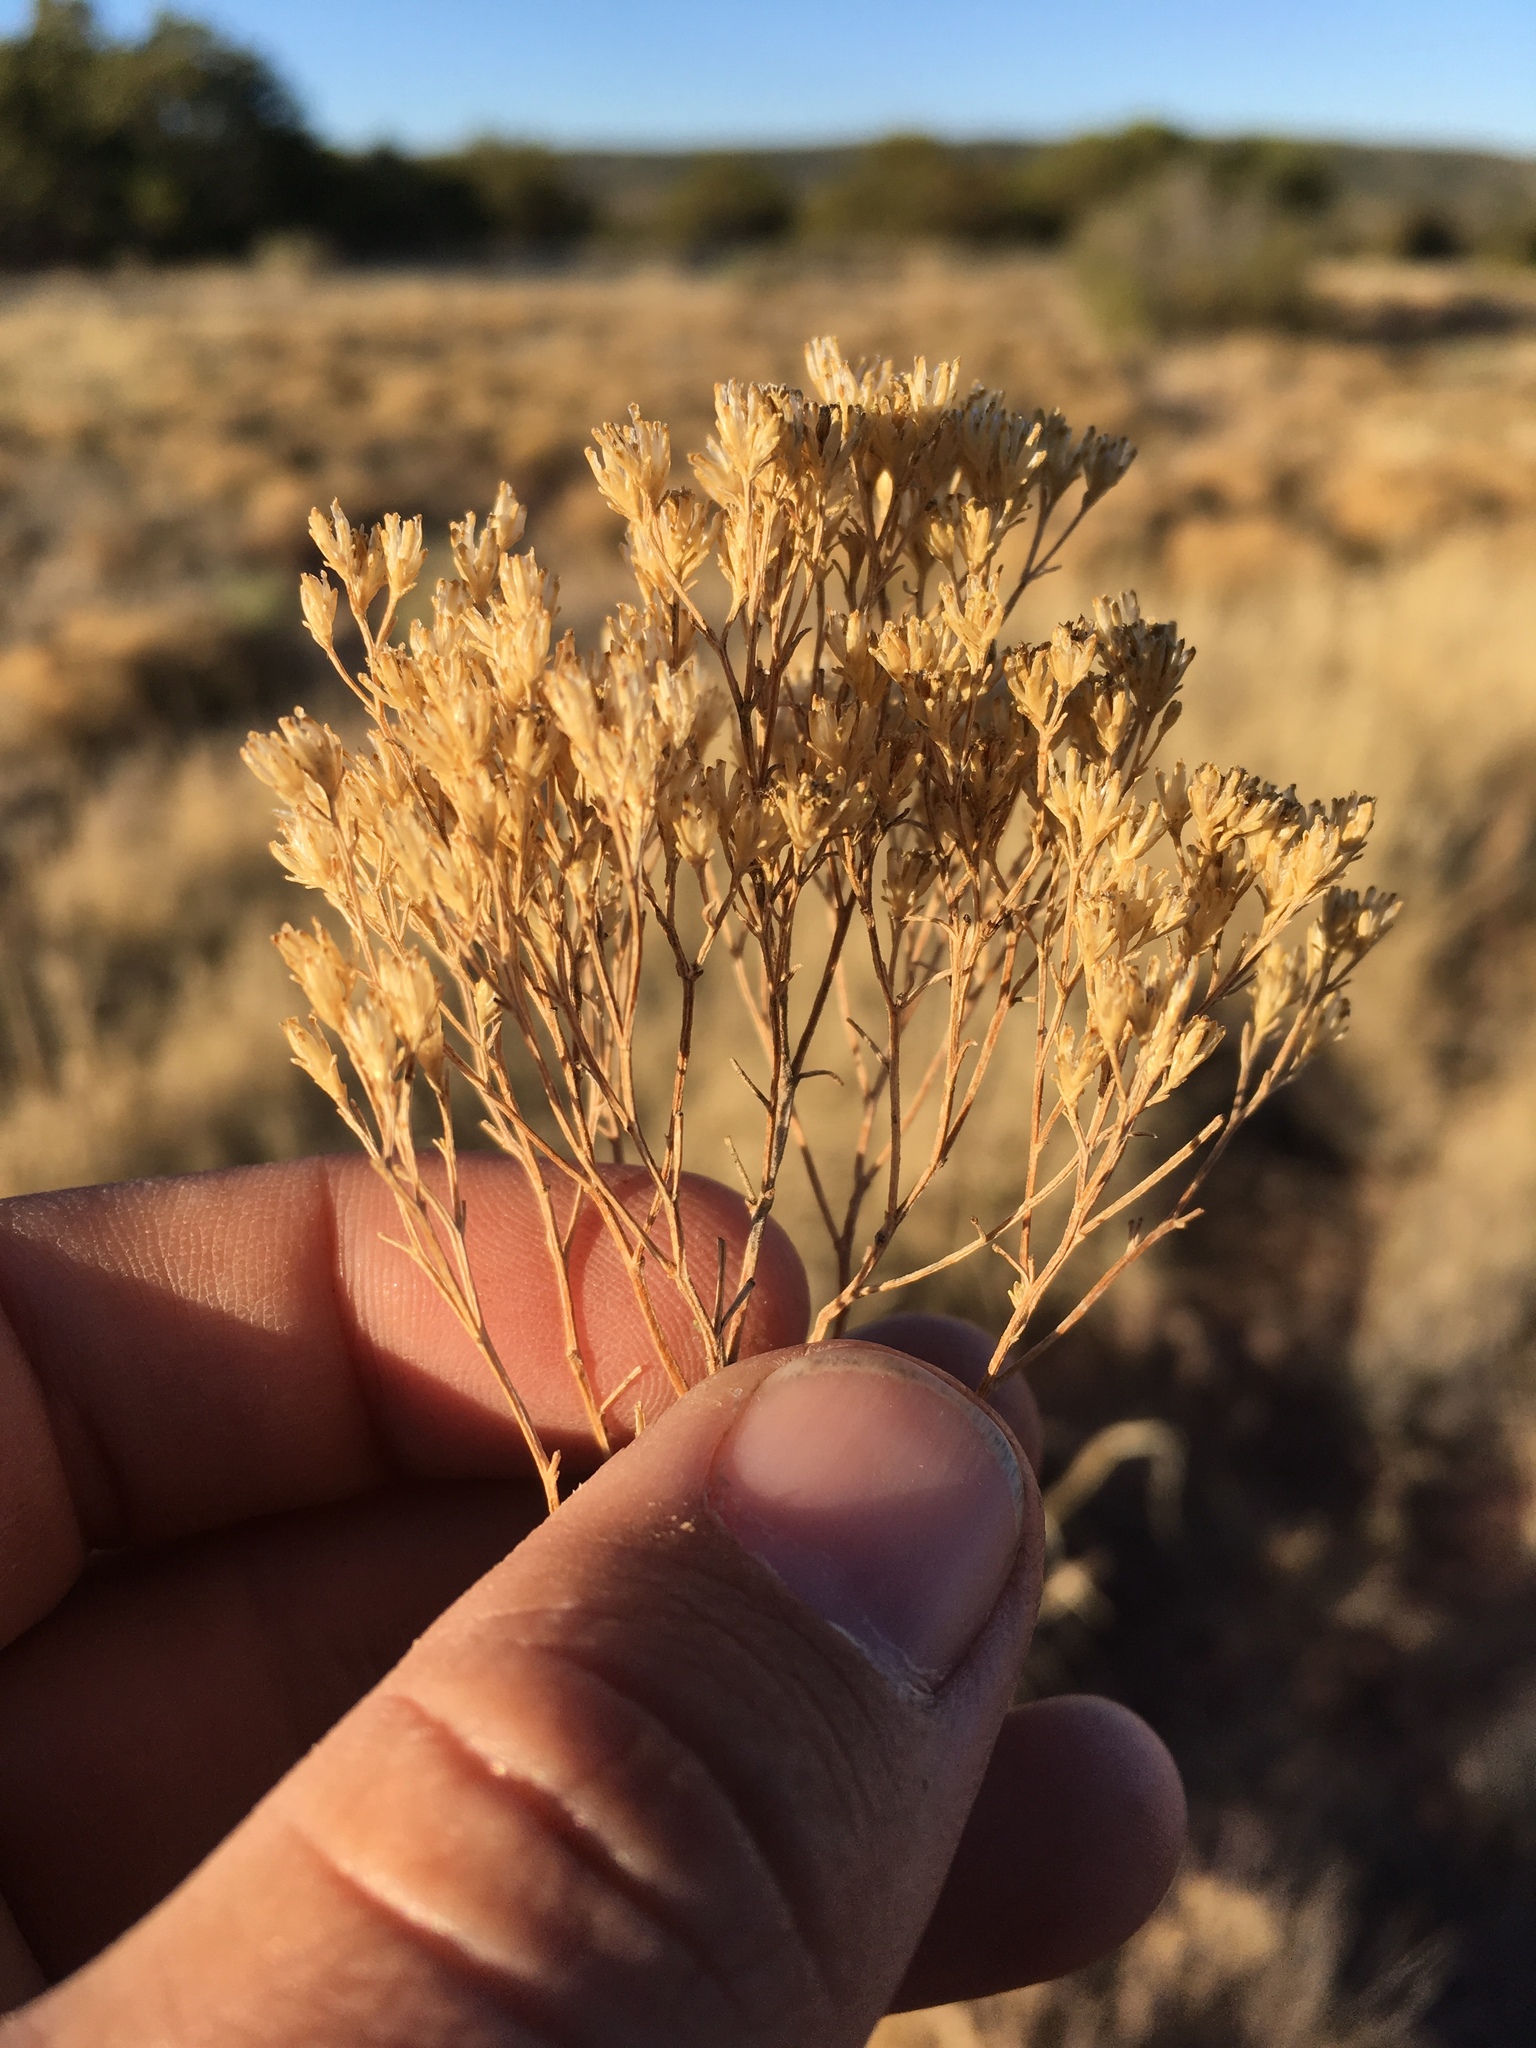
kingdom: Plantae
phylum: Tracheophyta
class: Magnoliopsida
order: Asterales
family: Asteraceae
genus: Gutierrezia
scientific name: Gutierrezia sarothrae
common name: Broom snakeweed
